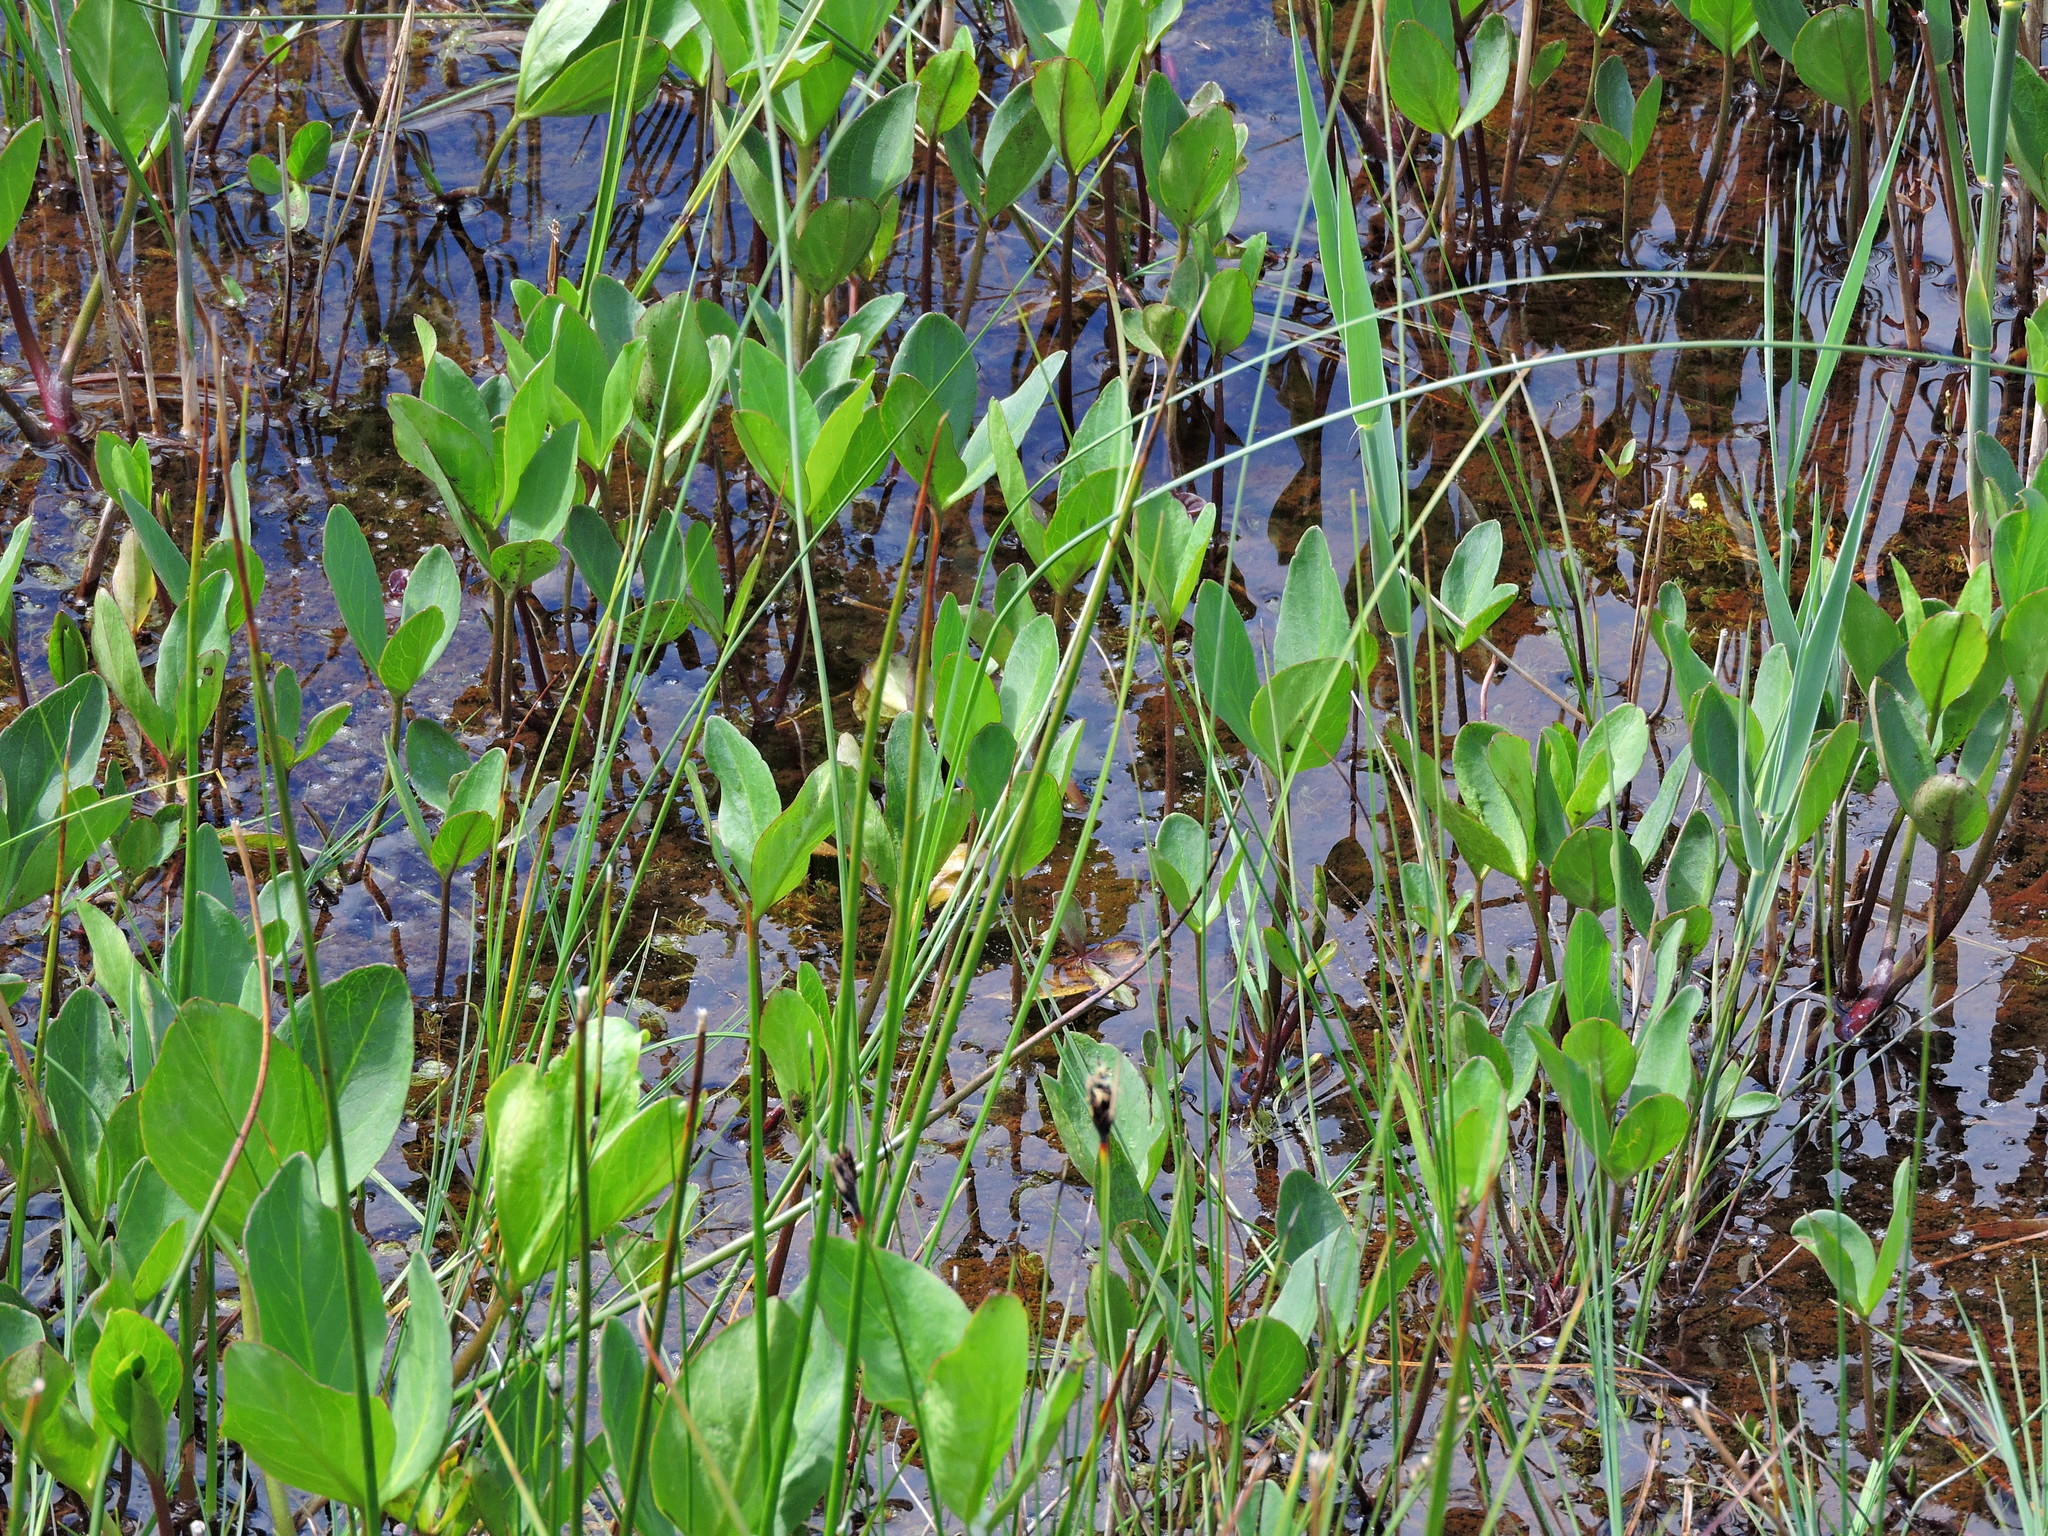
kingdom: Plantae
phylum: Tracheophyta
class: Magnoliopsida
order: Asterales
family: Menyanthaceae
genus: Menyanthes
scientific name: Menyanthes trifoliata
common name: Bogbean
